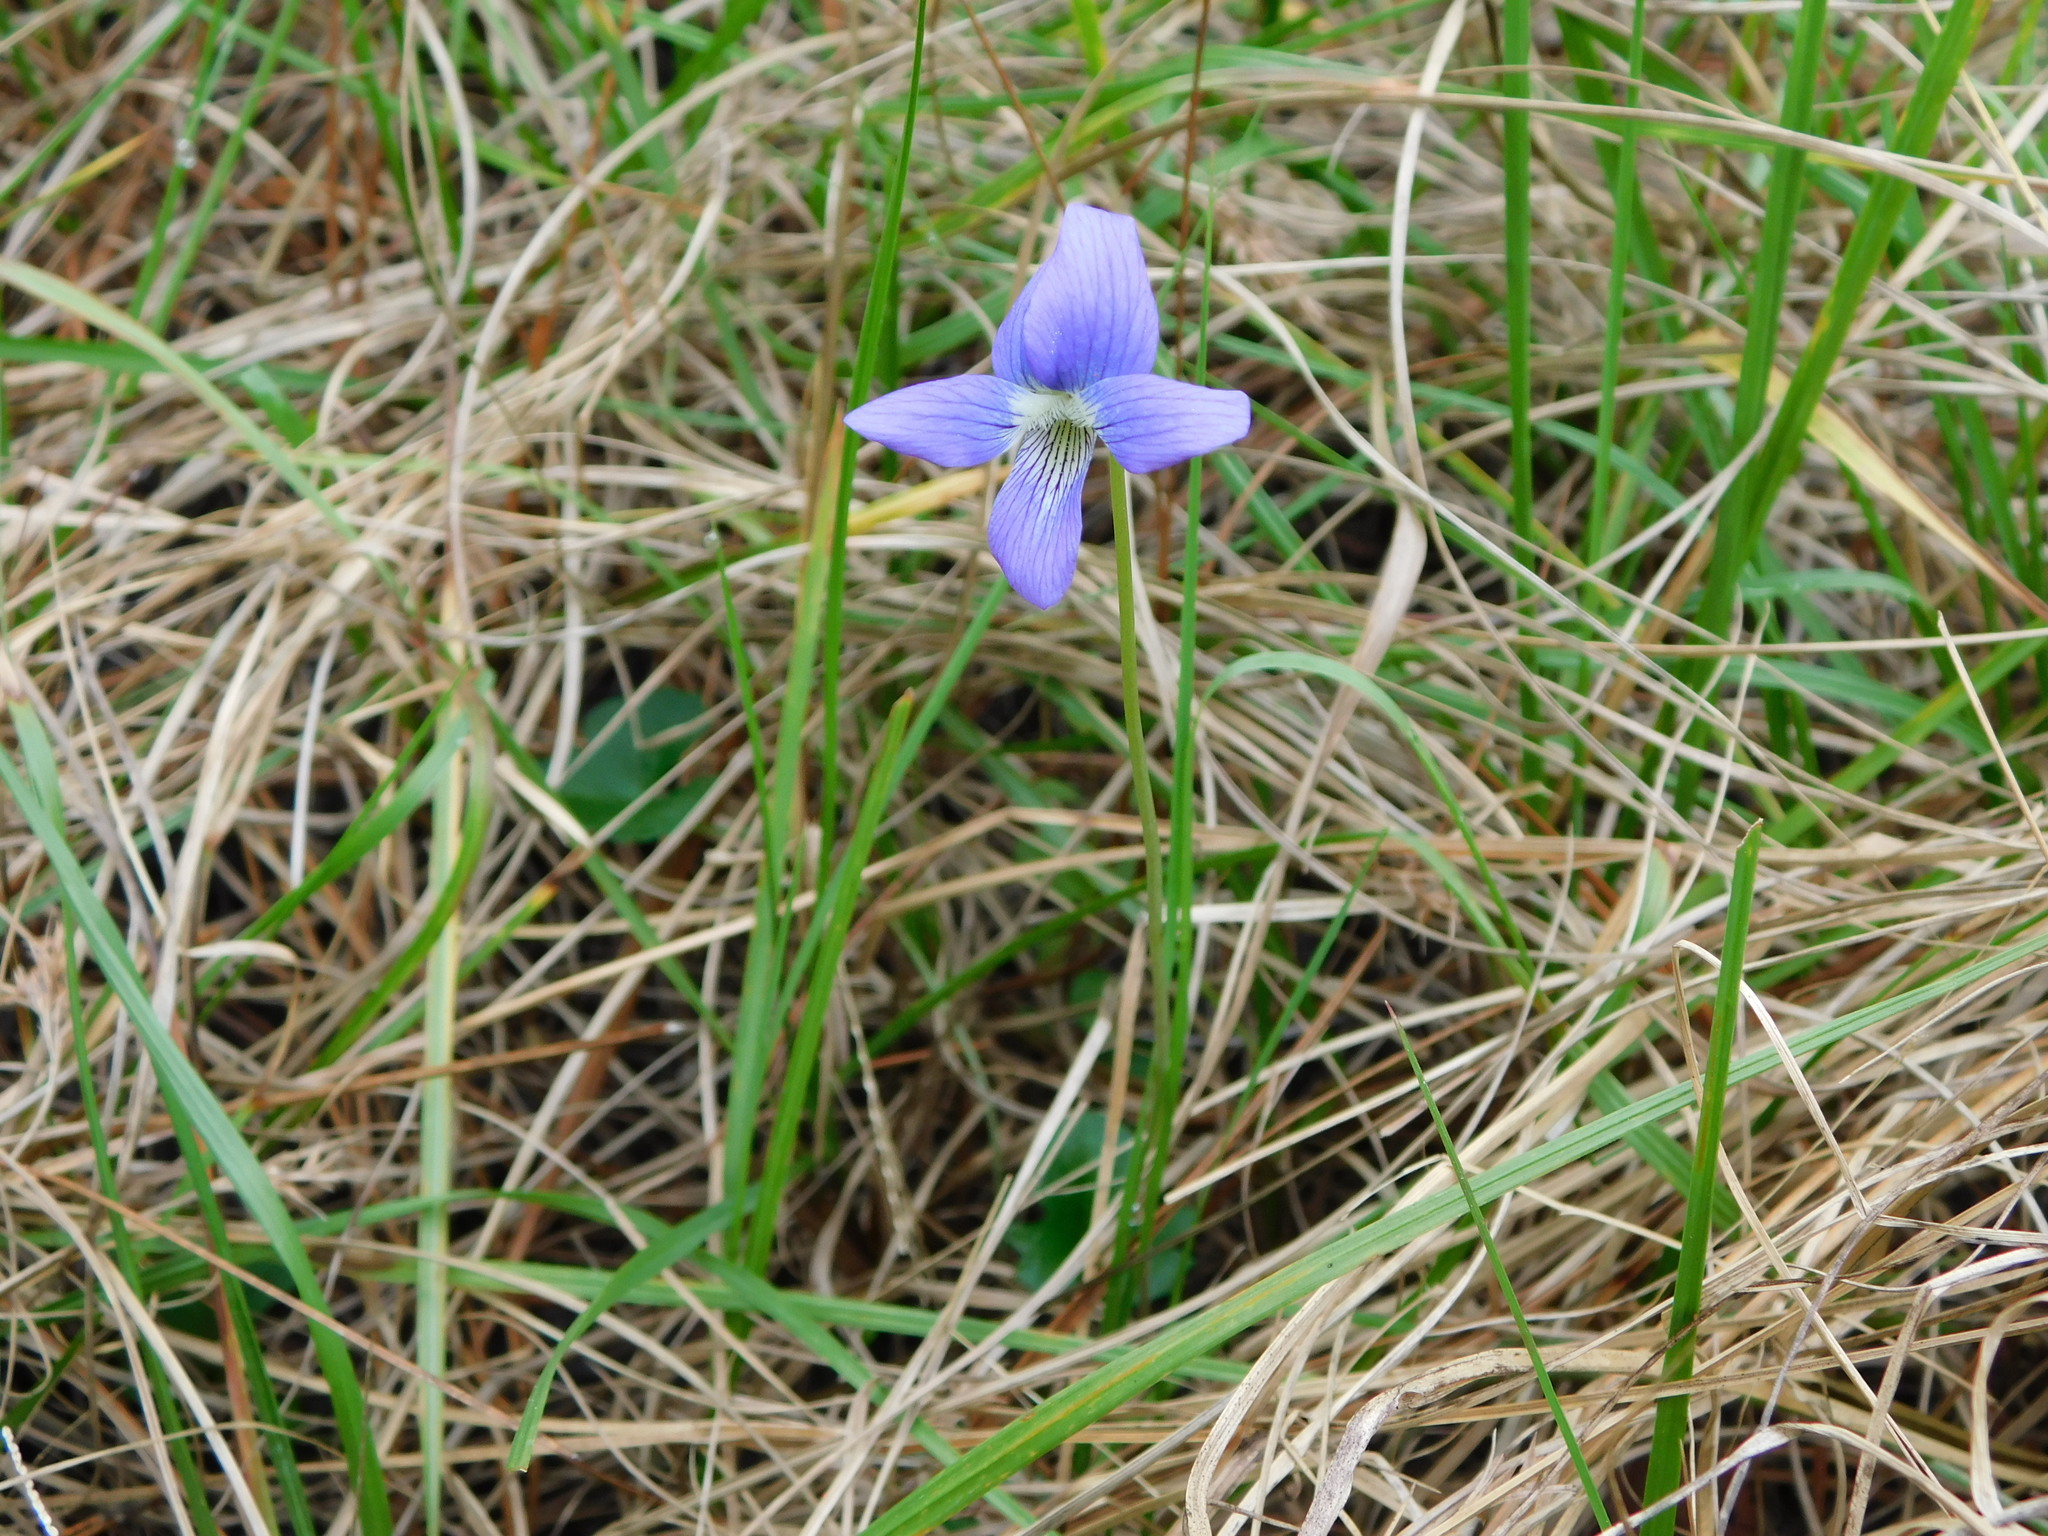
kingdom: Plantae
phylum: Tracheophyta
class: Magnoliopsida
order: Malpighiales
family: Violaceae
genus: Viola
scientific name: Viola septemloba
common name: Southern coast violet
